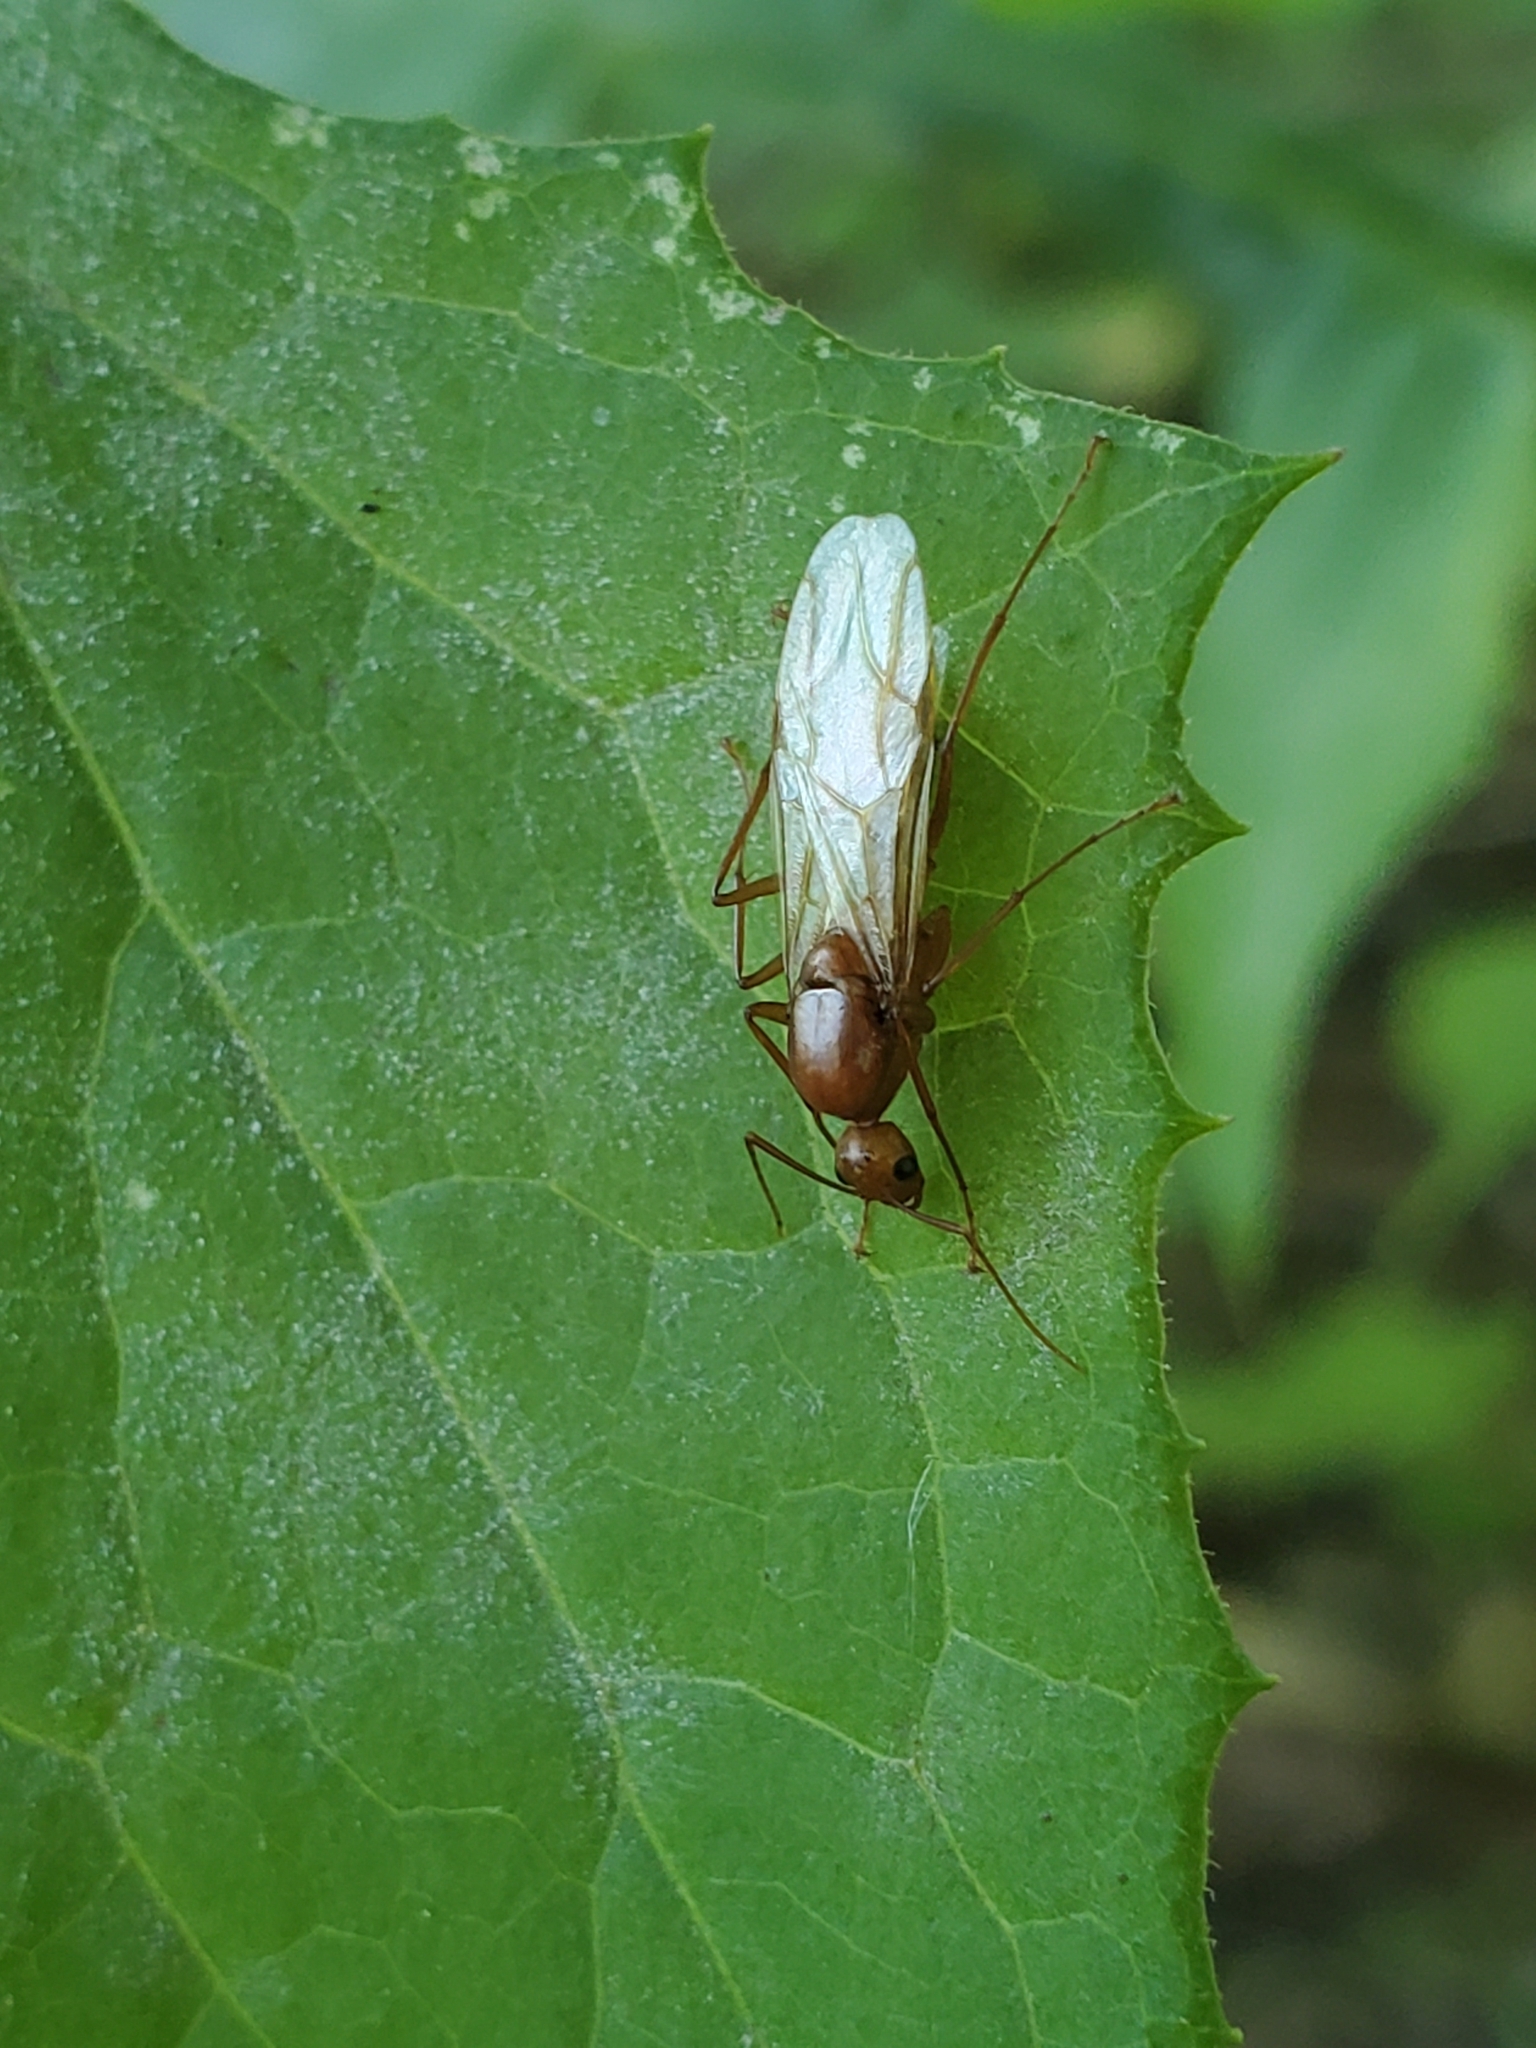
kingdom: Animalia
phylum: Arthropoda
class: Insecta
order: Hymenoptera
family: Formicidae
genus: Camponotus
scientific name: Camponotus castaneus
